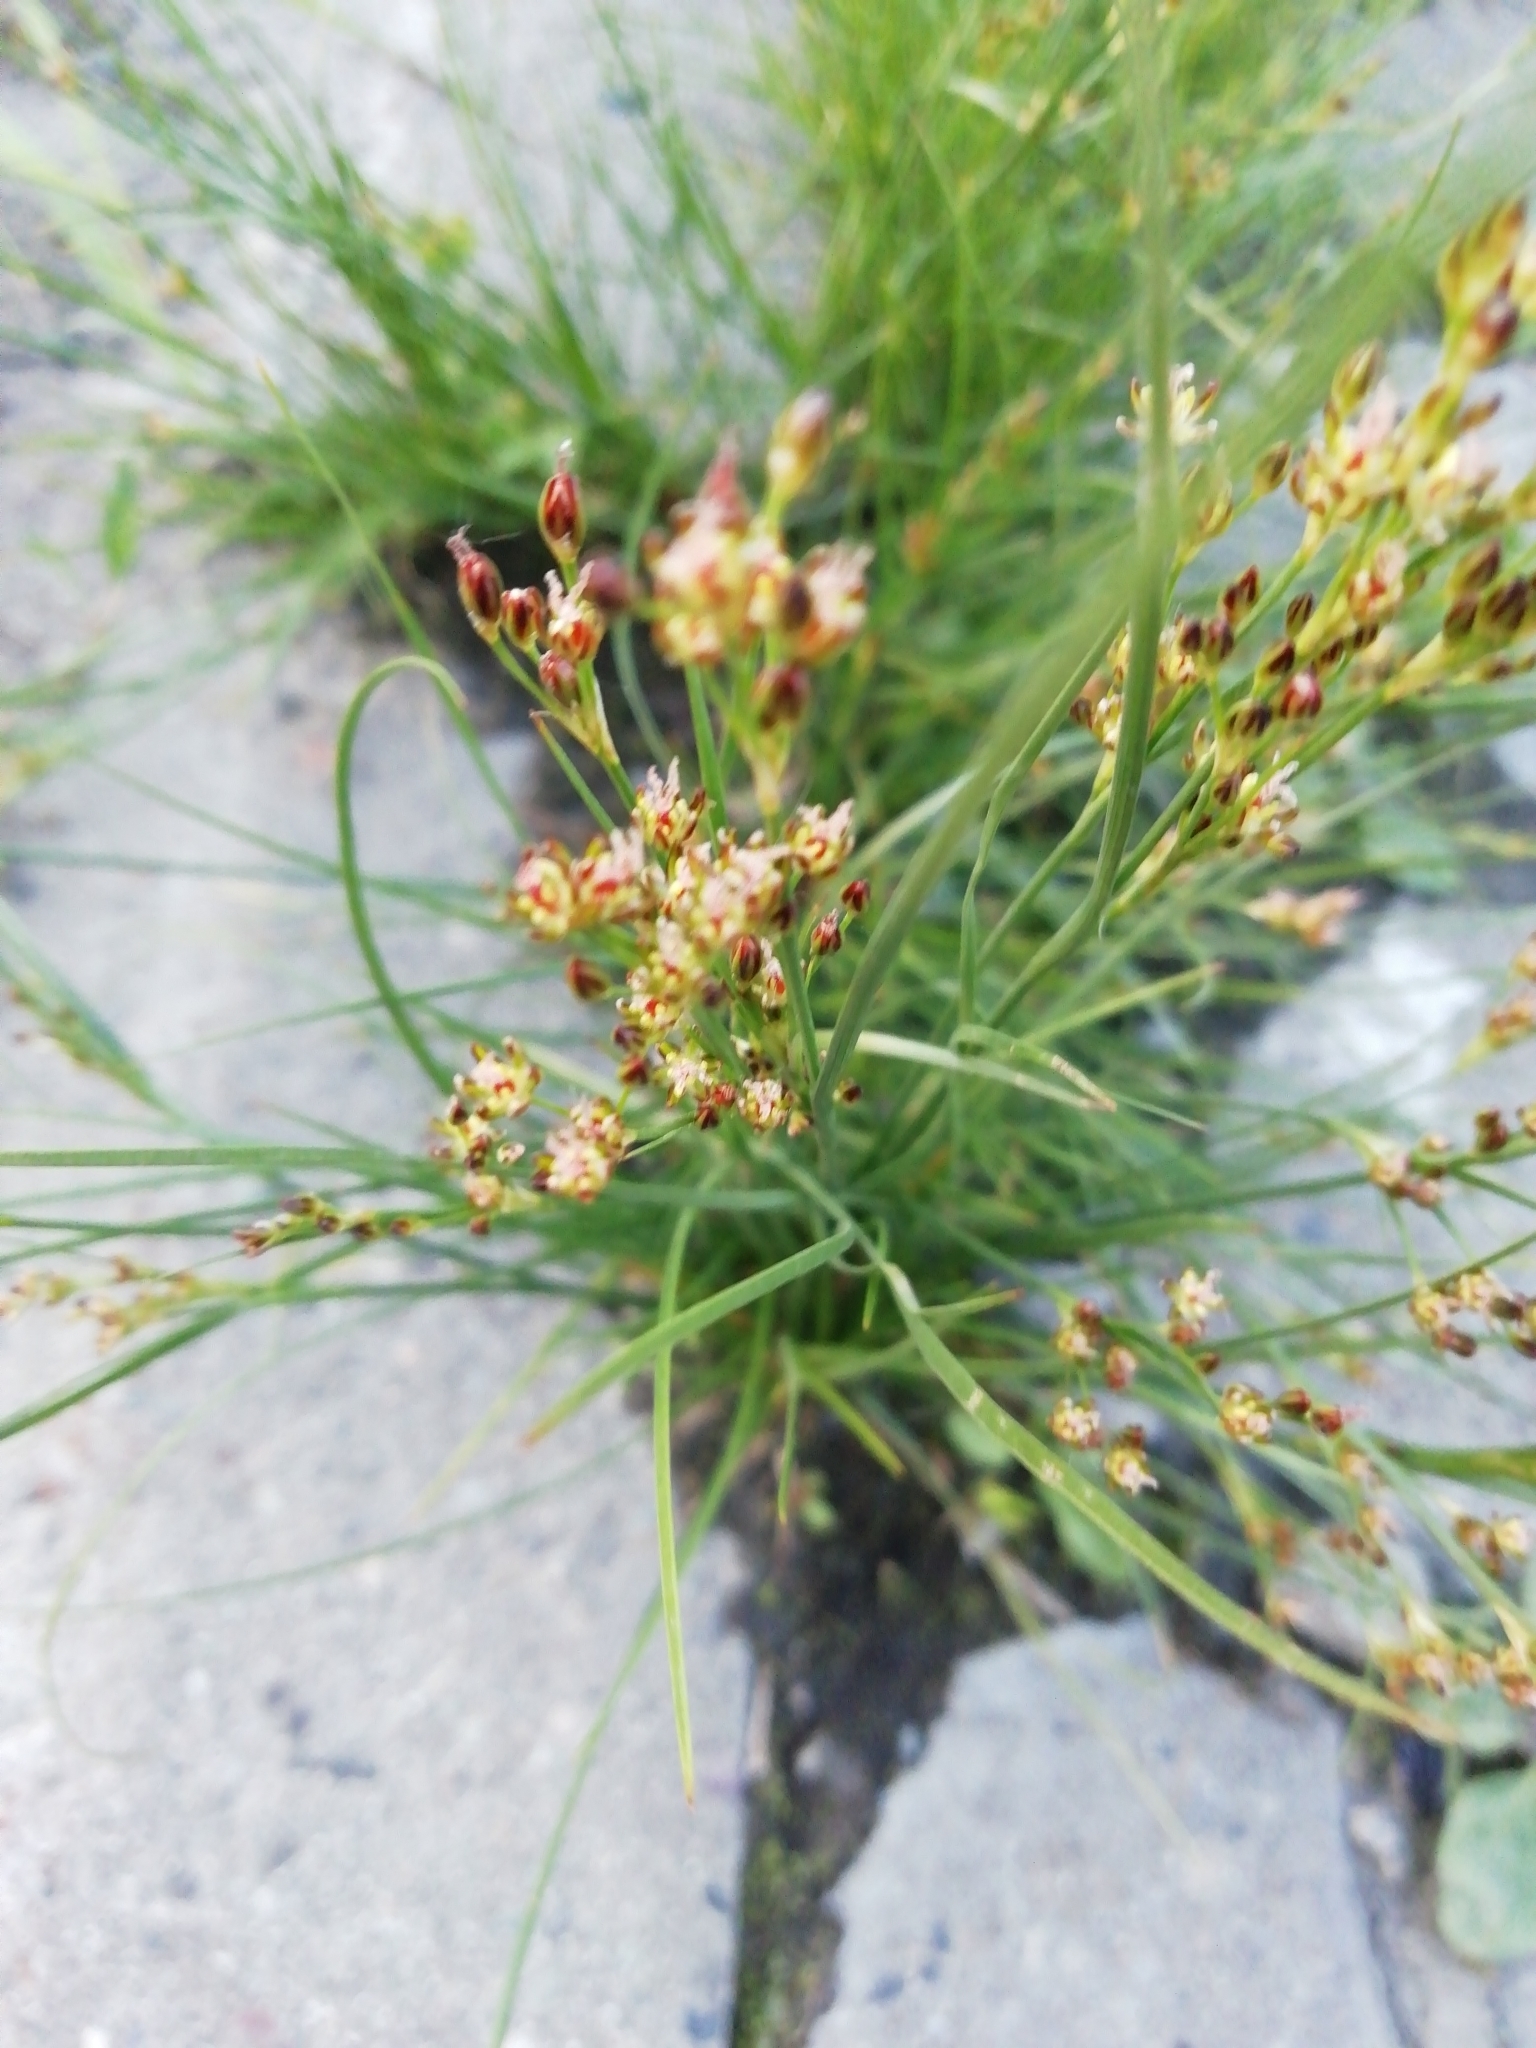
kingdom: Plantae
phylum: Tracheophyta
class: Liliopsida
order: Poales
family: Juncaceae
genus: Juncus
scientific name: Juncus compressus
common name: Round-fruited rush
